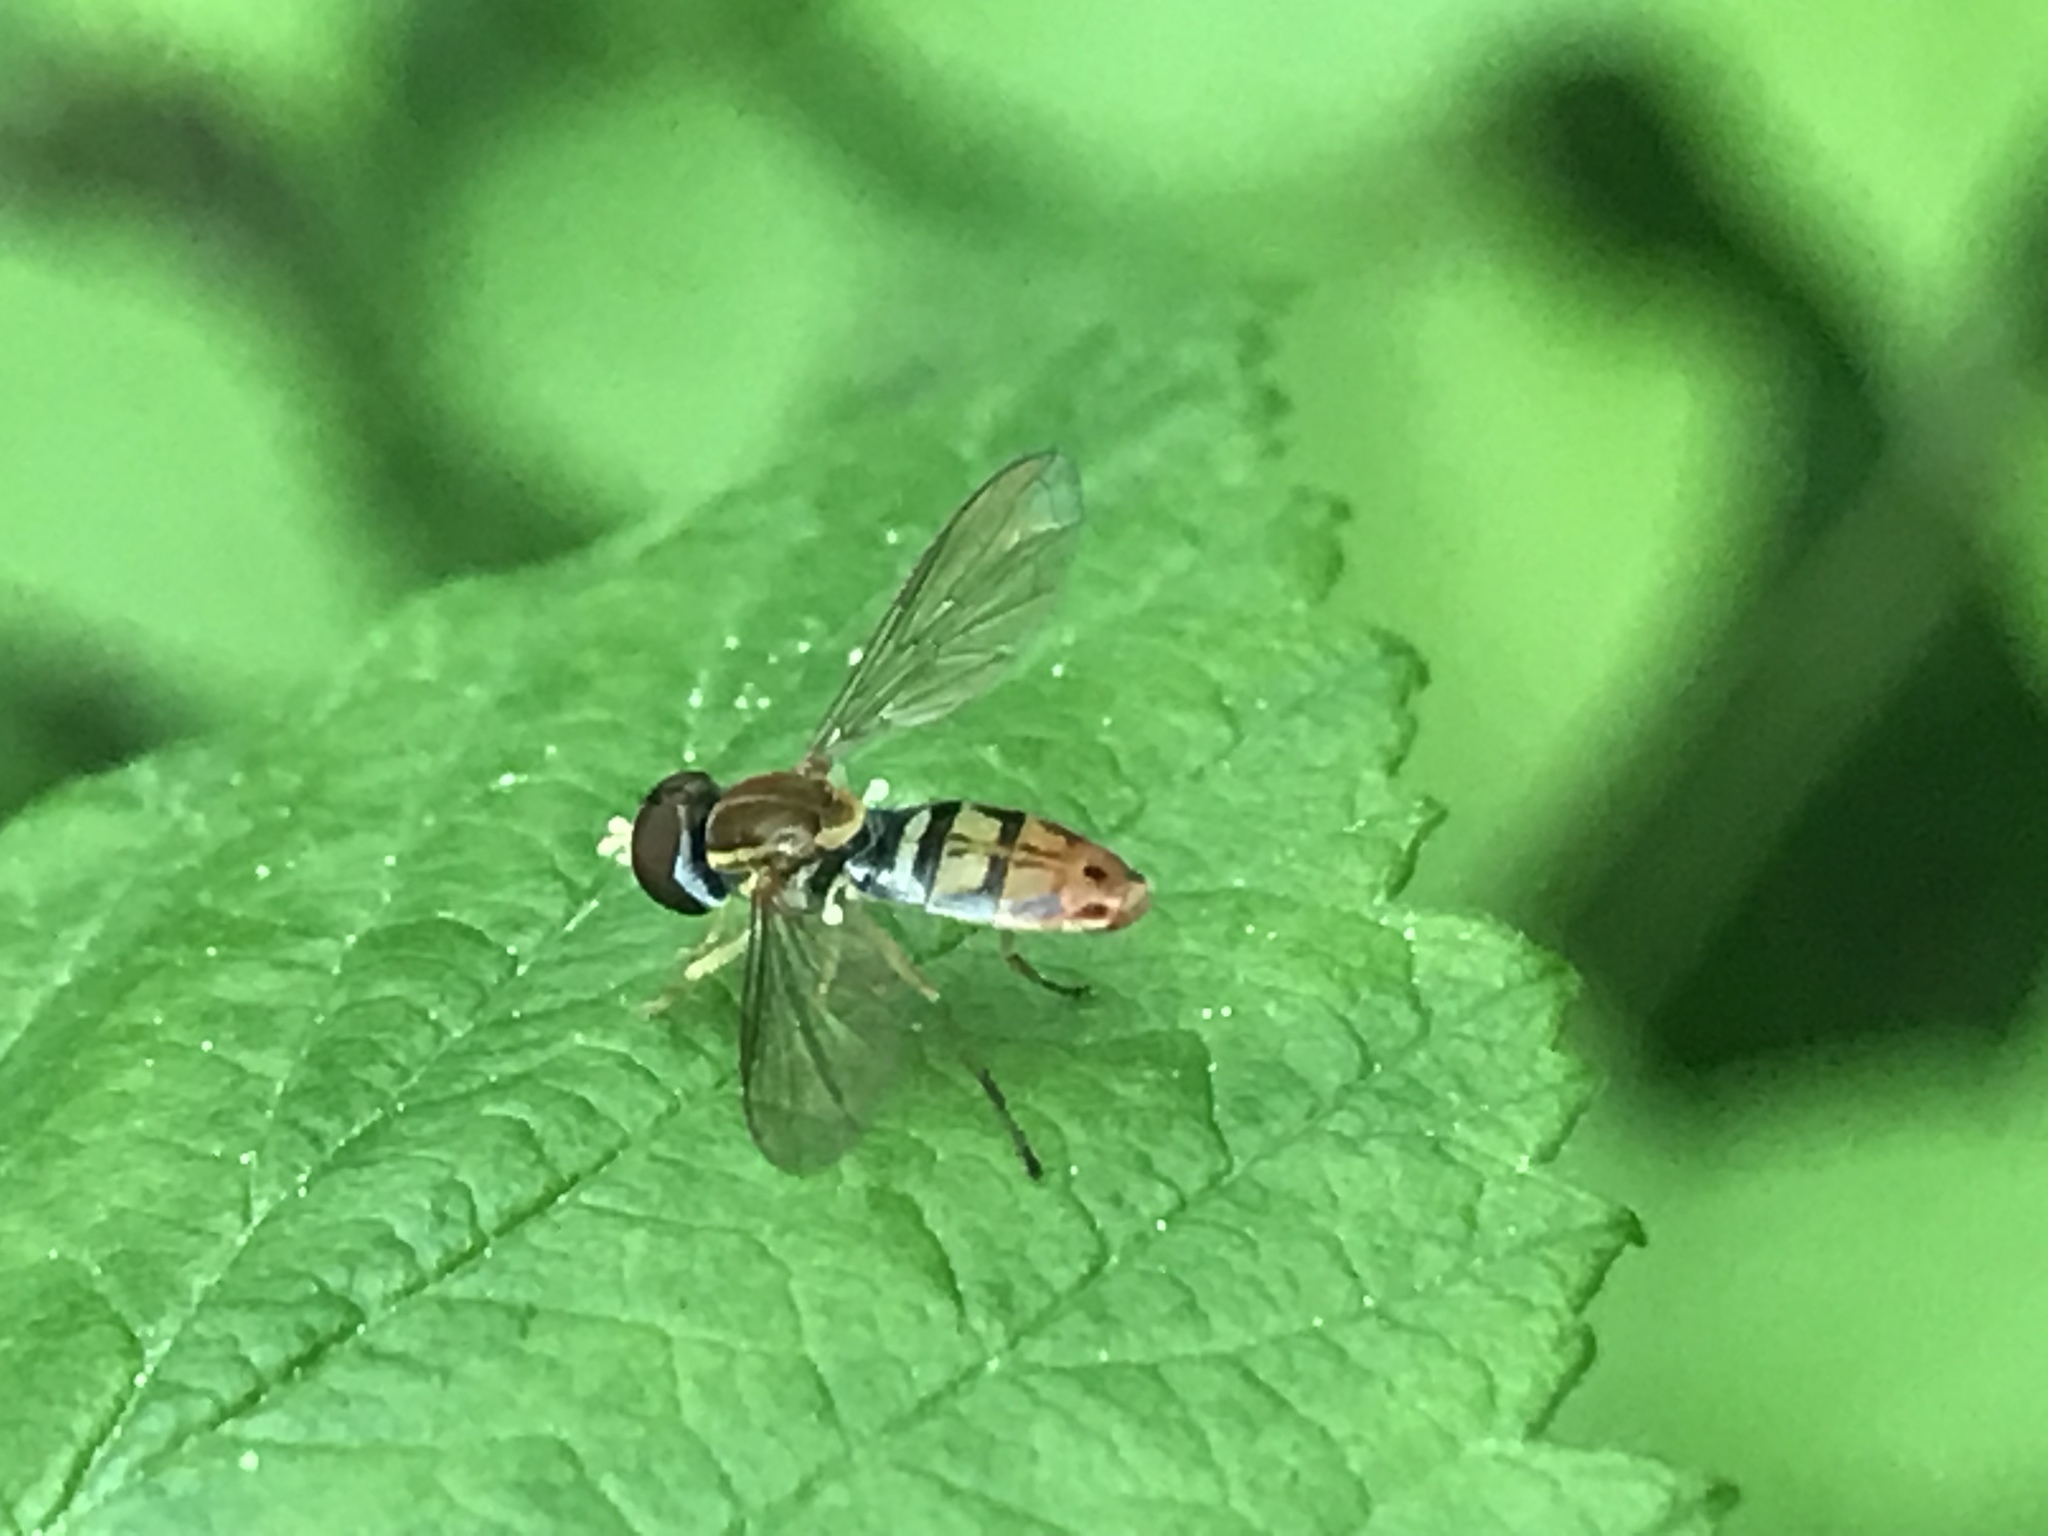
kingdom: Animalia
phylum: Arthropoda
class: Insecta
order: Diptera
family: Syrphidae
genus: Toxomerus
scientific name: Toxomerus marginatus
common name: Syrphid fly
